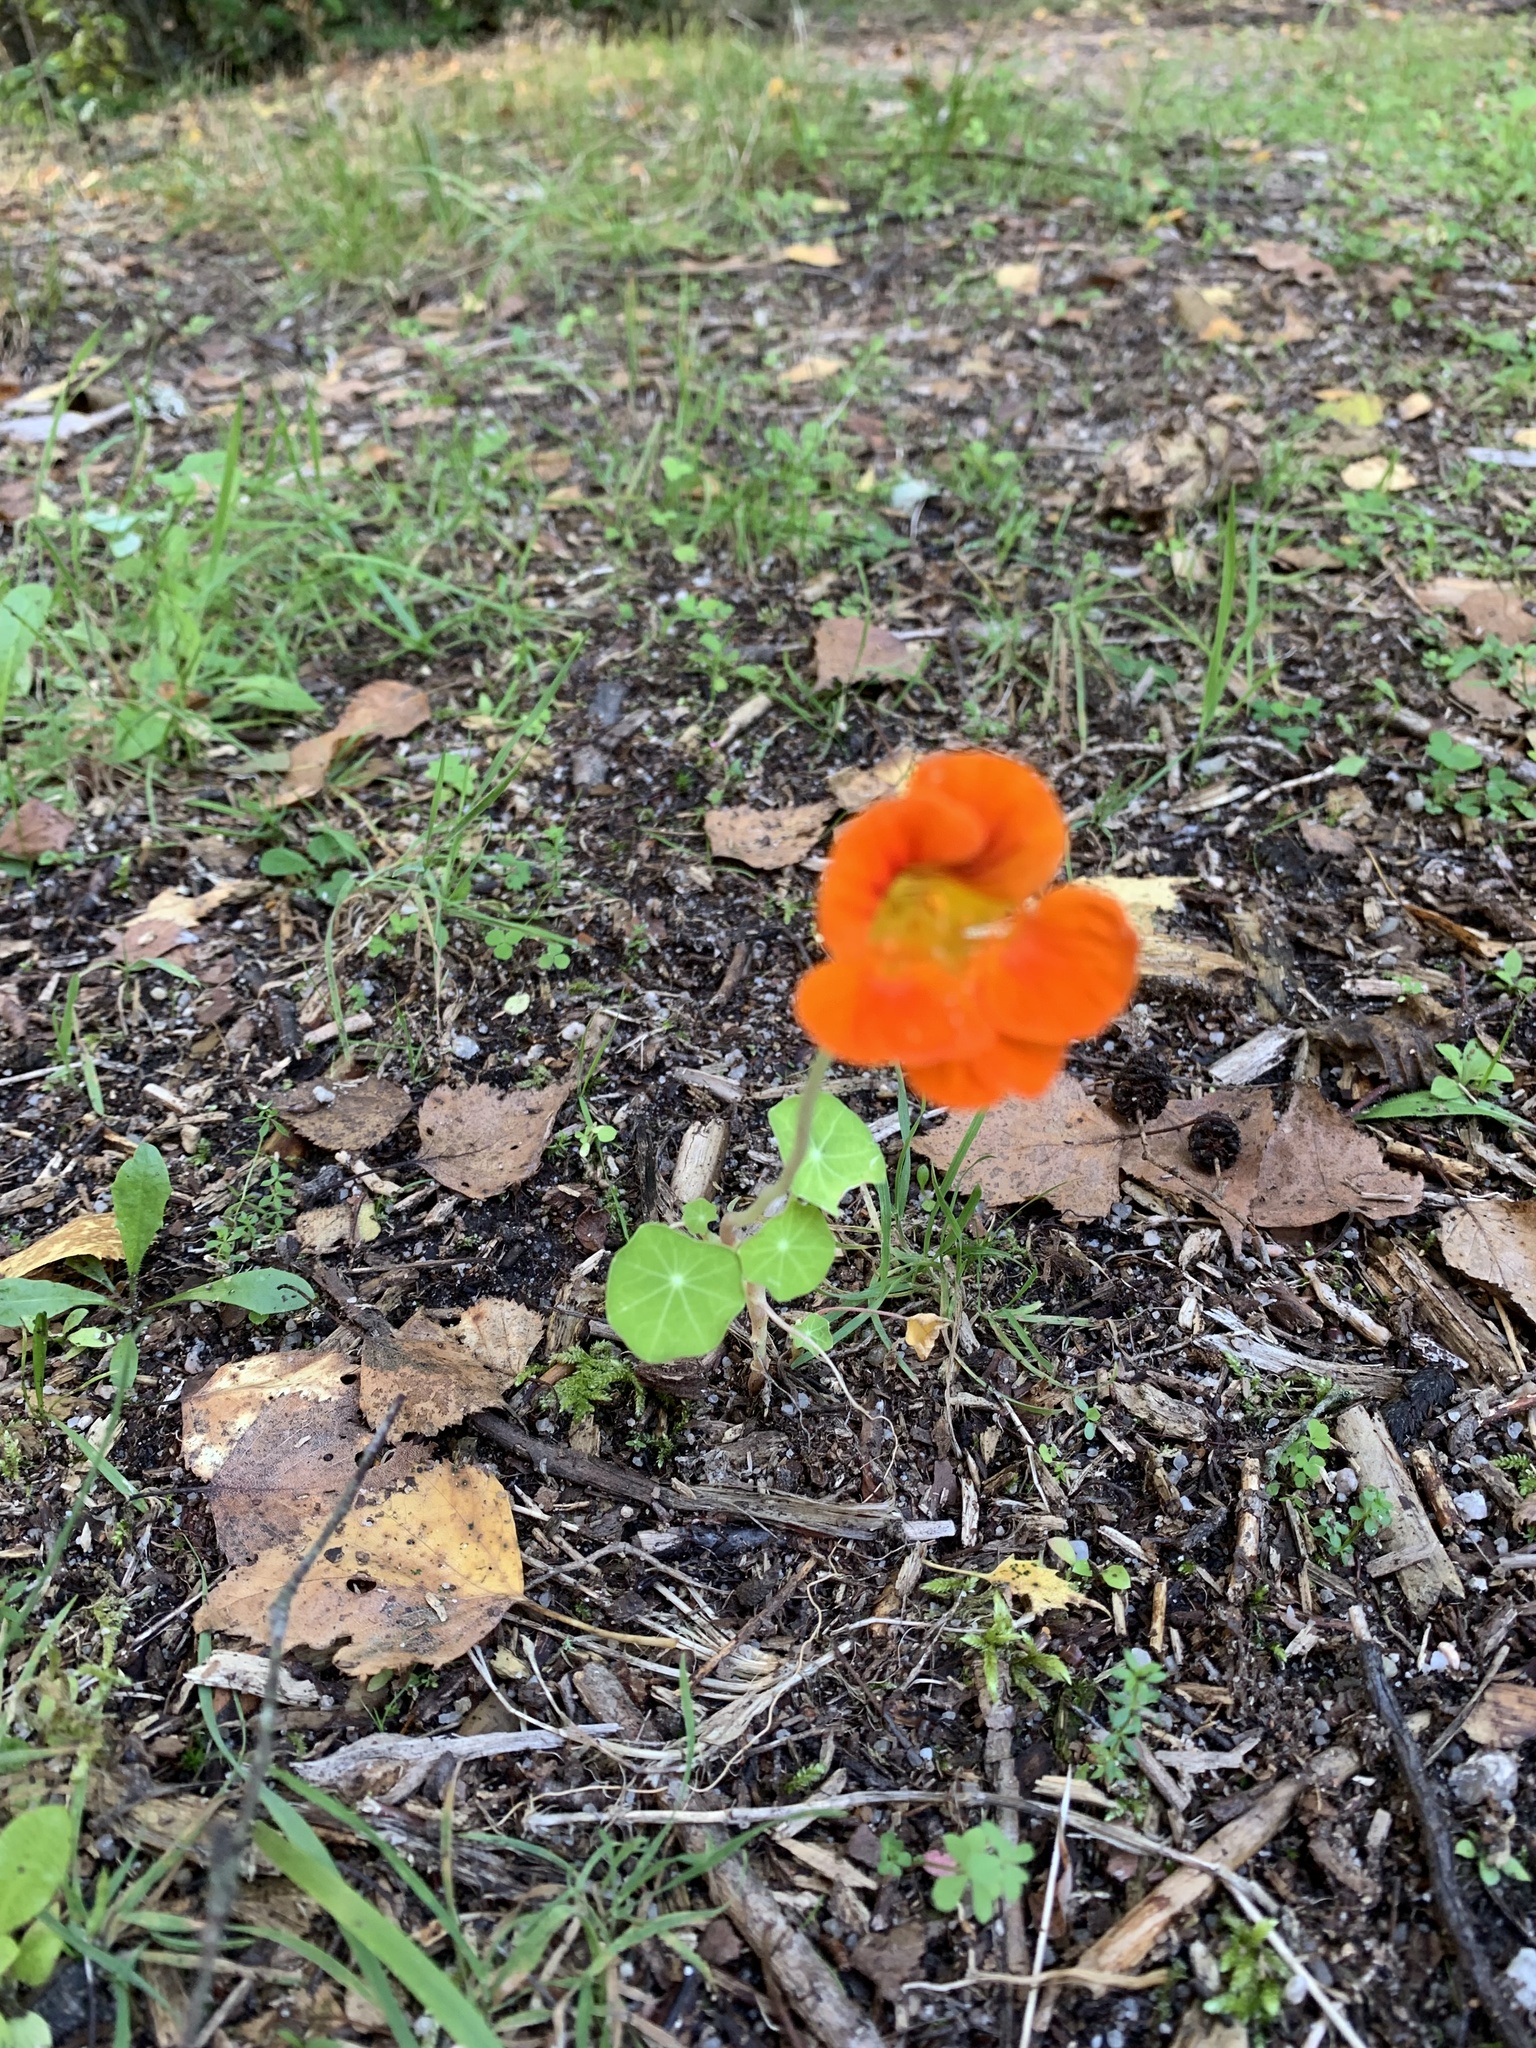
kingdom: Plantae
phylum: Tracheophyta
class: Magnoliopsida
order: Brassicales
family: Tropaeolaceae
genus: Tropaeolum
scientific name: Tropaeolum majus
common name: Nasturtium
